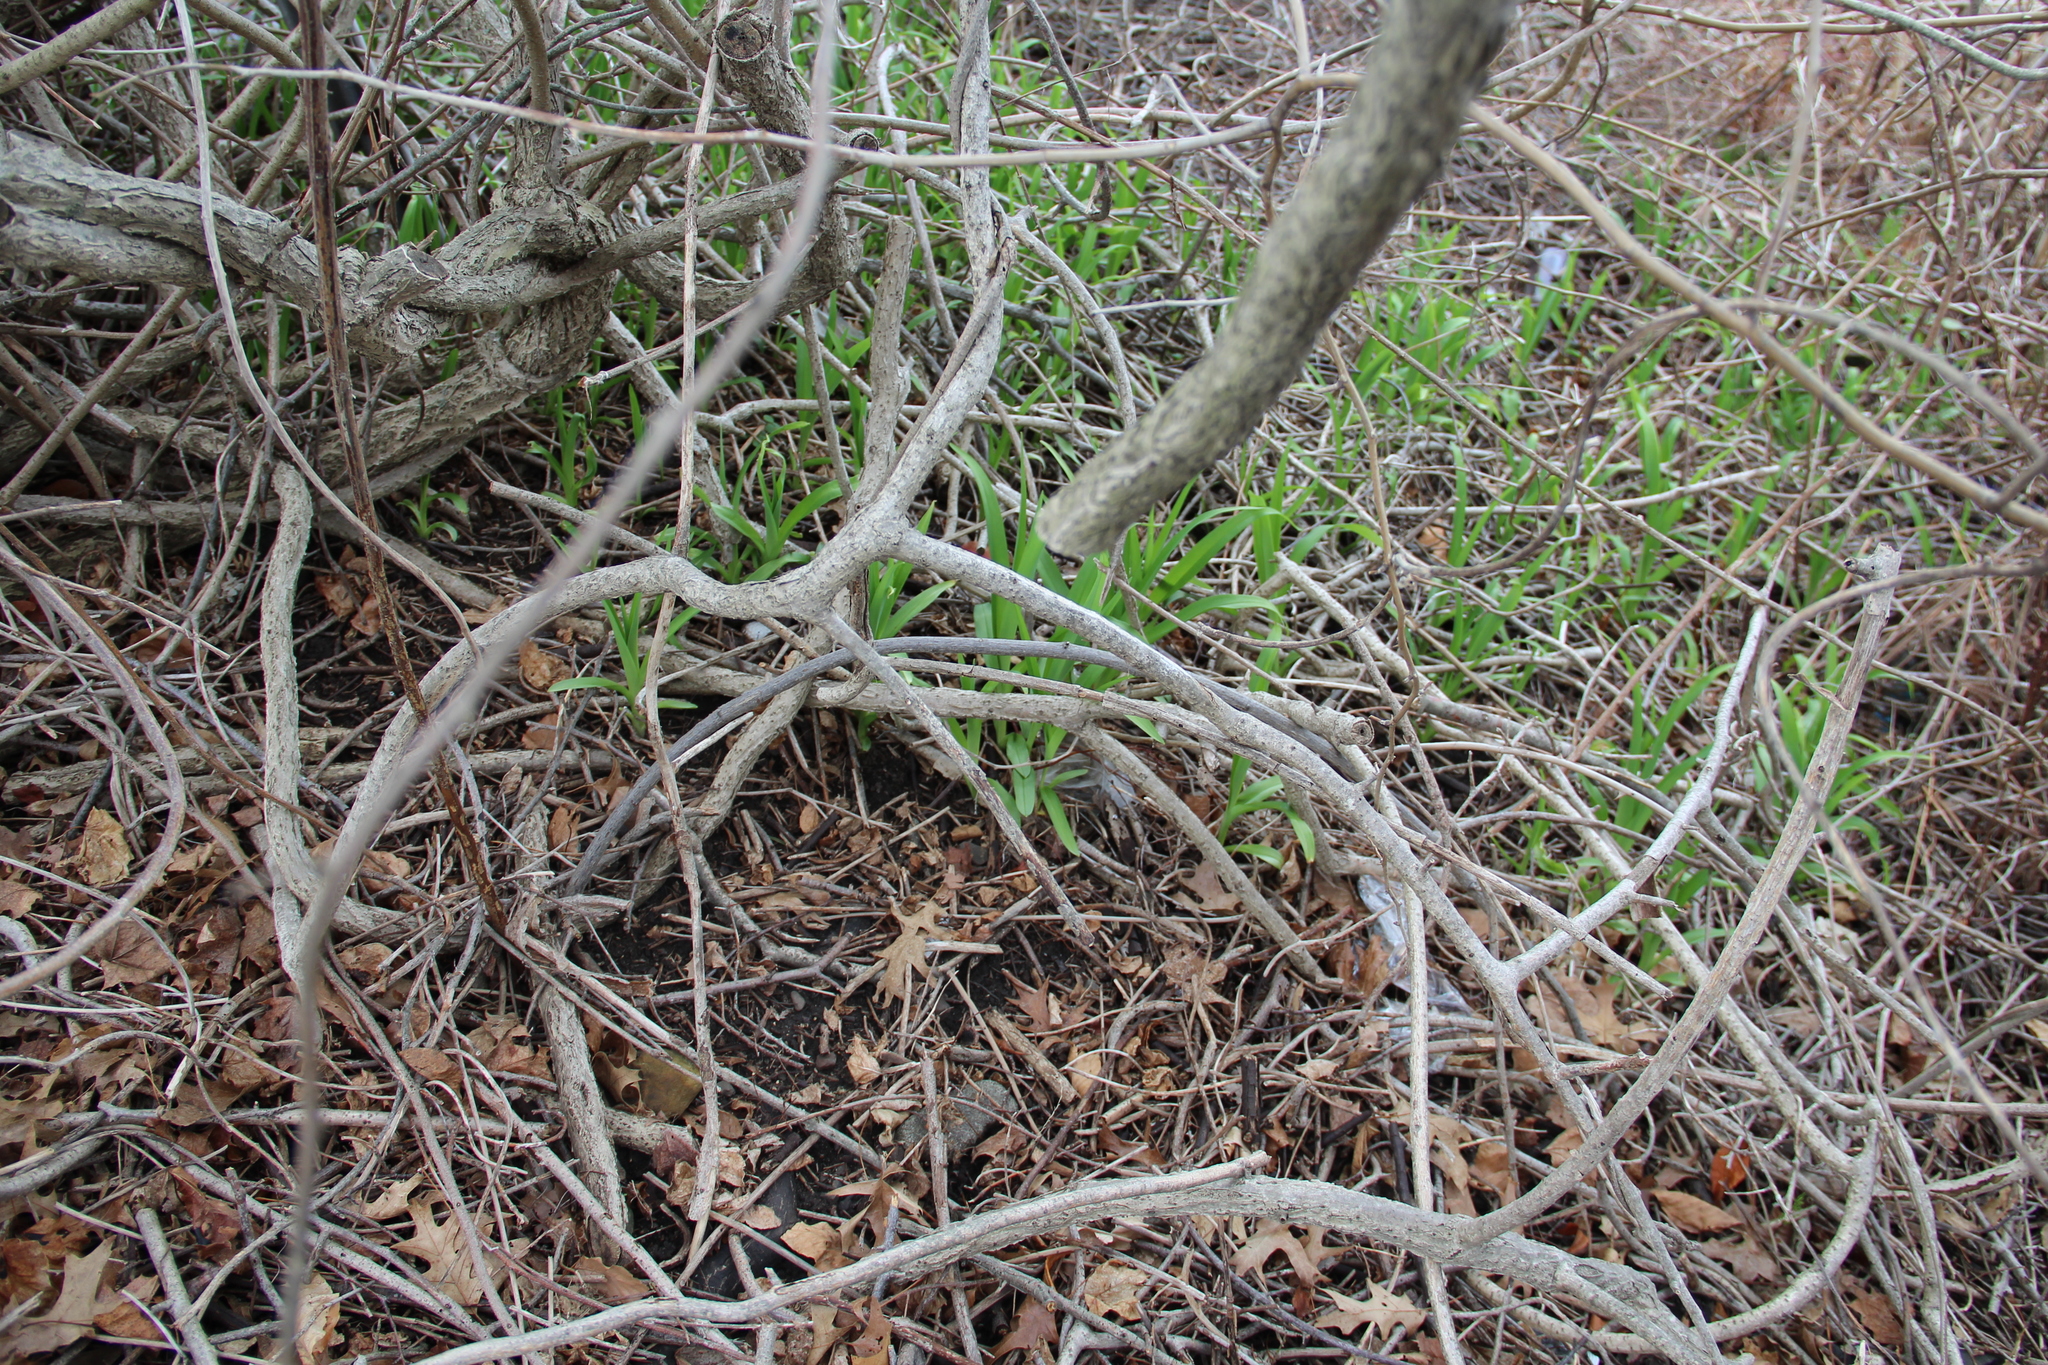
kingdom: Plantae
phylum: Tracheophyta
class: Magnoliopsida
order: Rosales
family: Rosaceae
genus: Rosa
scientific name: Rosa rugosa
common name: Japanese rose
